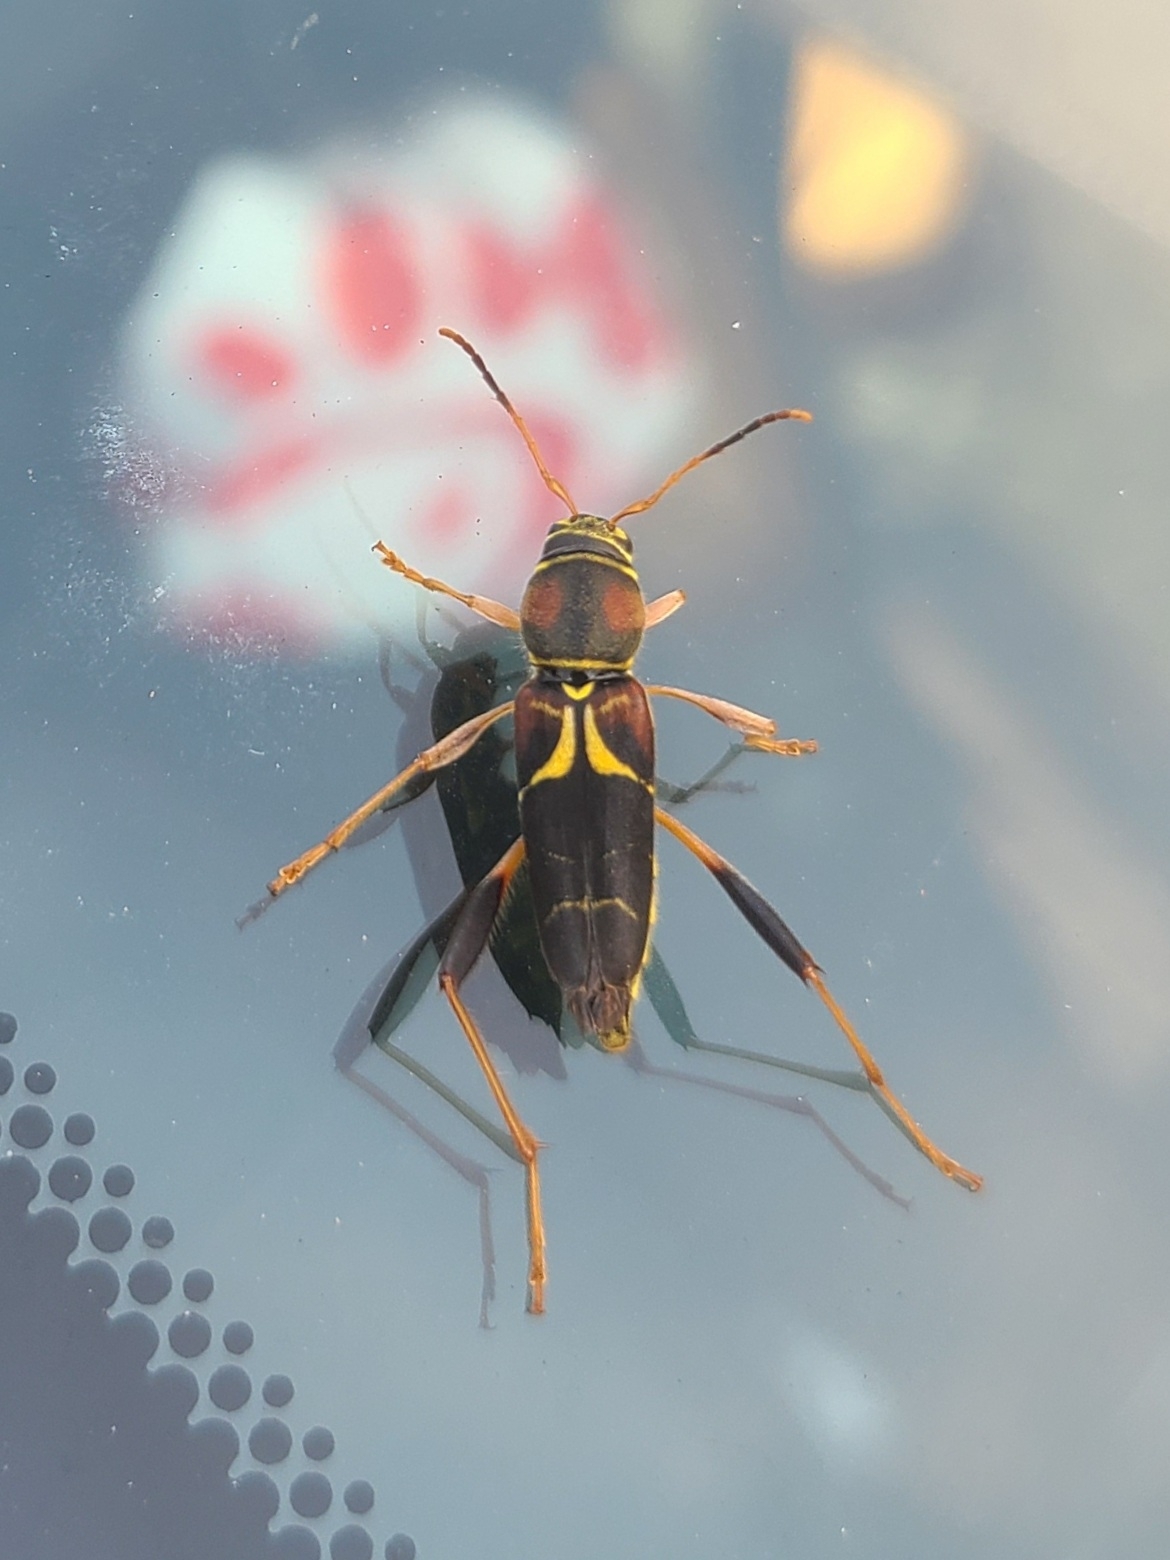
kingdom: Animalia
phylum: Arthropoda
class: Insecta
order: Coleoptera
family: Cerambycidae
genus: Neoclytus
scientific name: Neoclytus mucronatus
